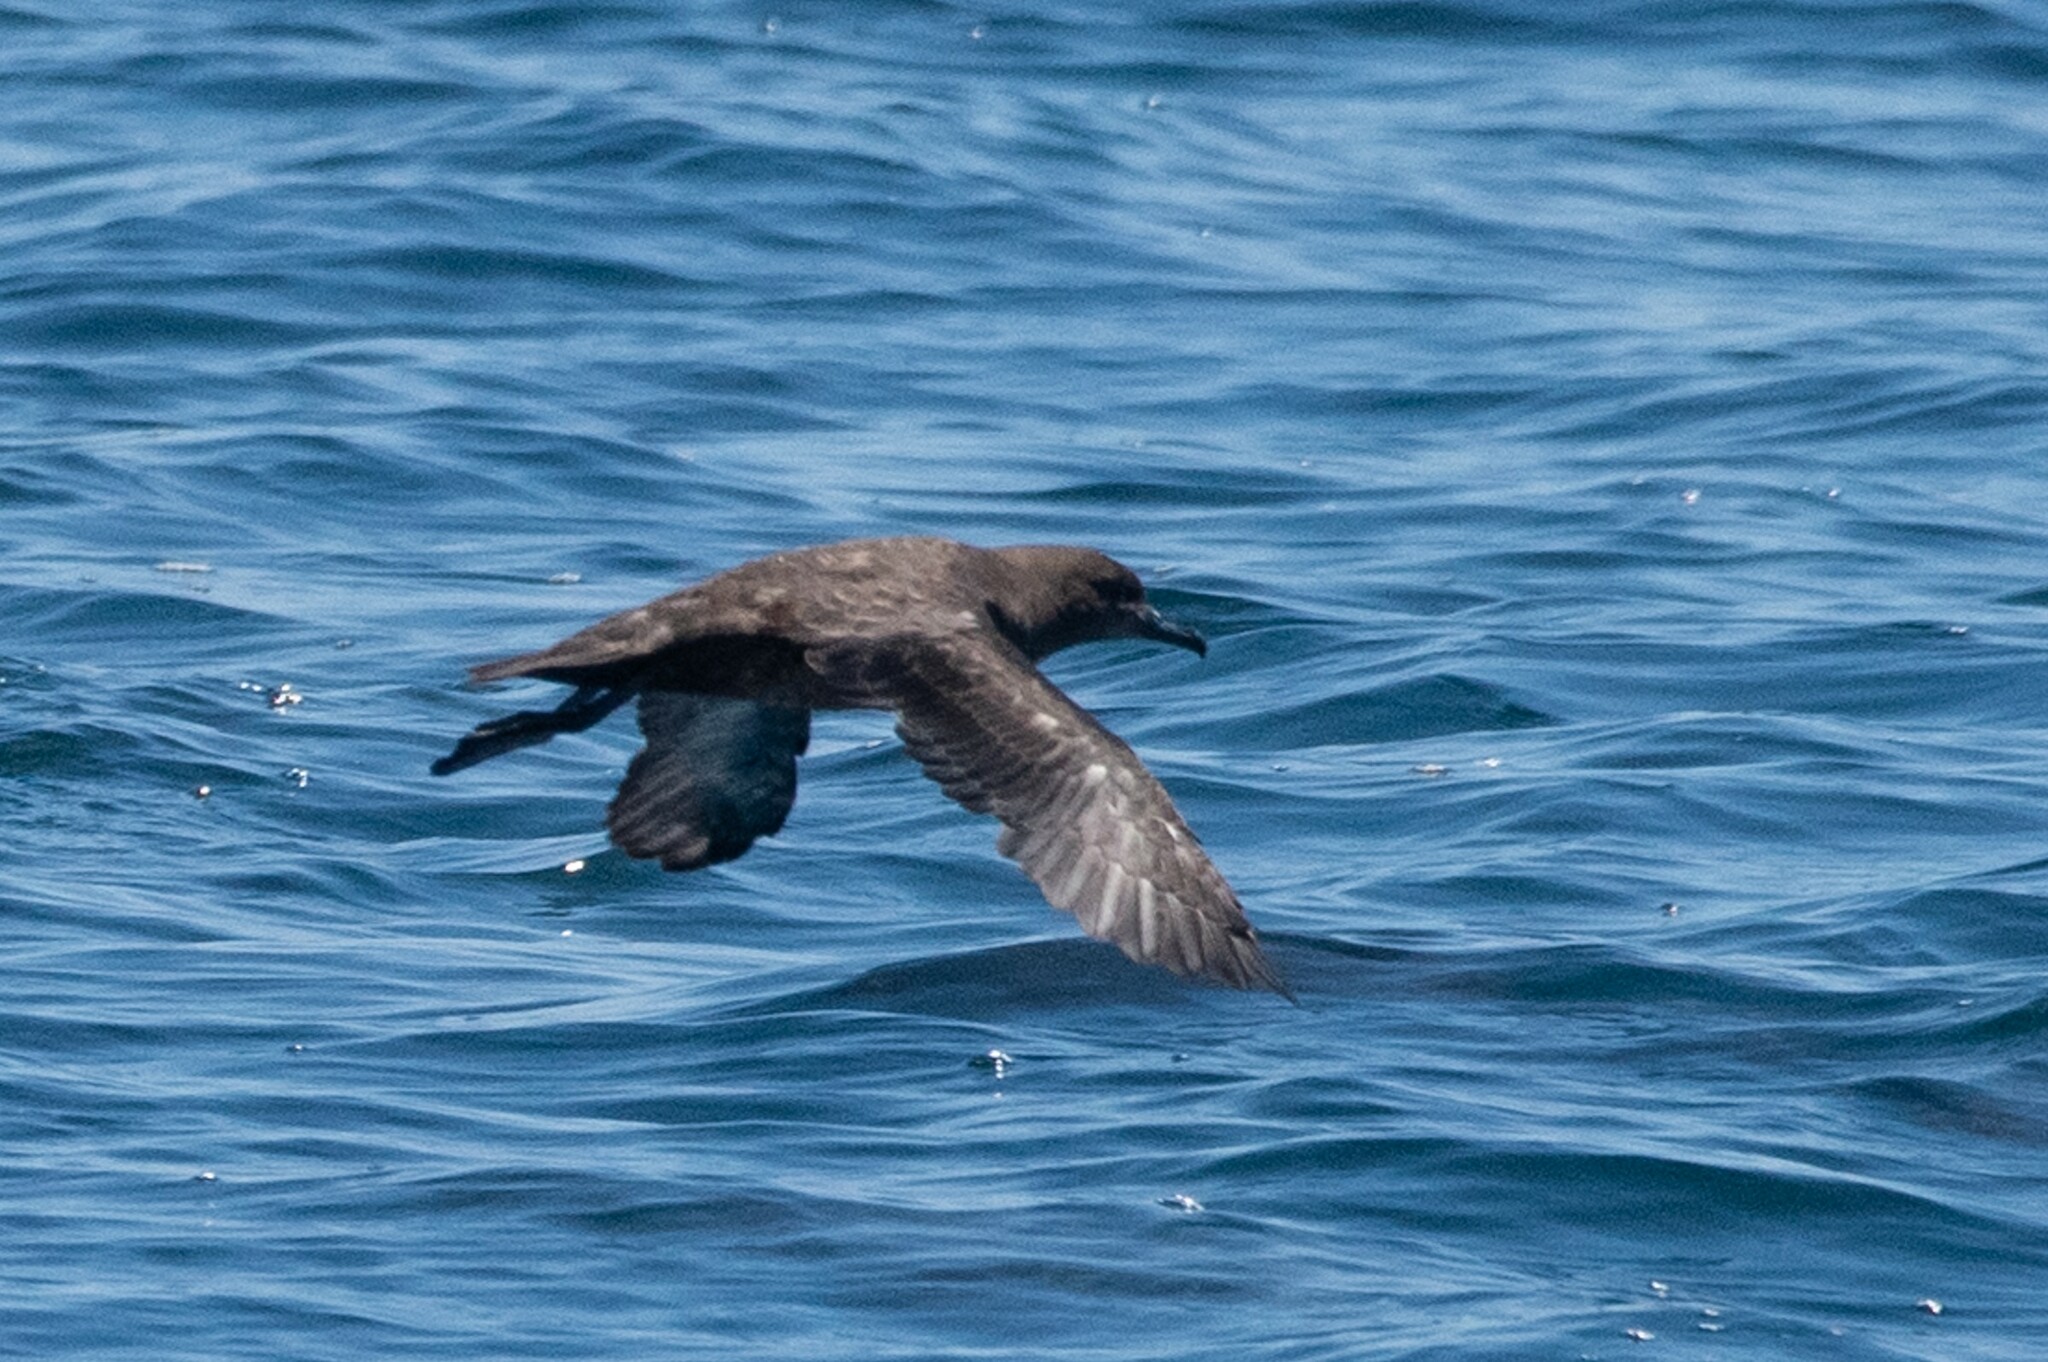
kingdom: Animalia
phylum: Chordata
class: Aves
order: Procellariiformes
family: Procellariidae
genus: Puffinus
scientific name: Puffinus griseus
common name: Sooty shearwater
